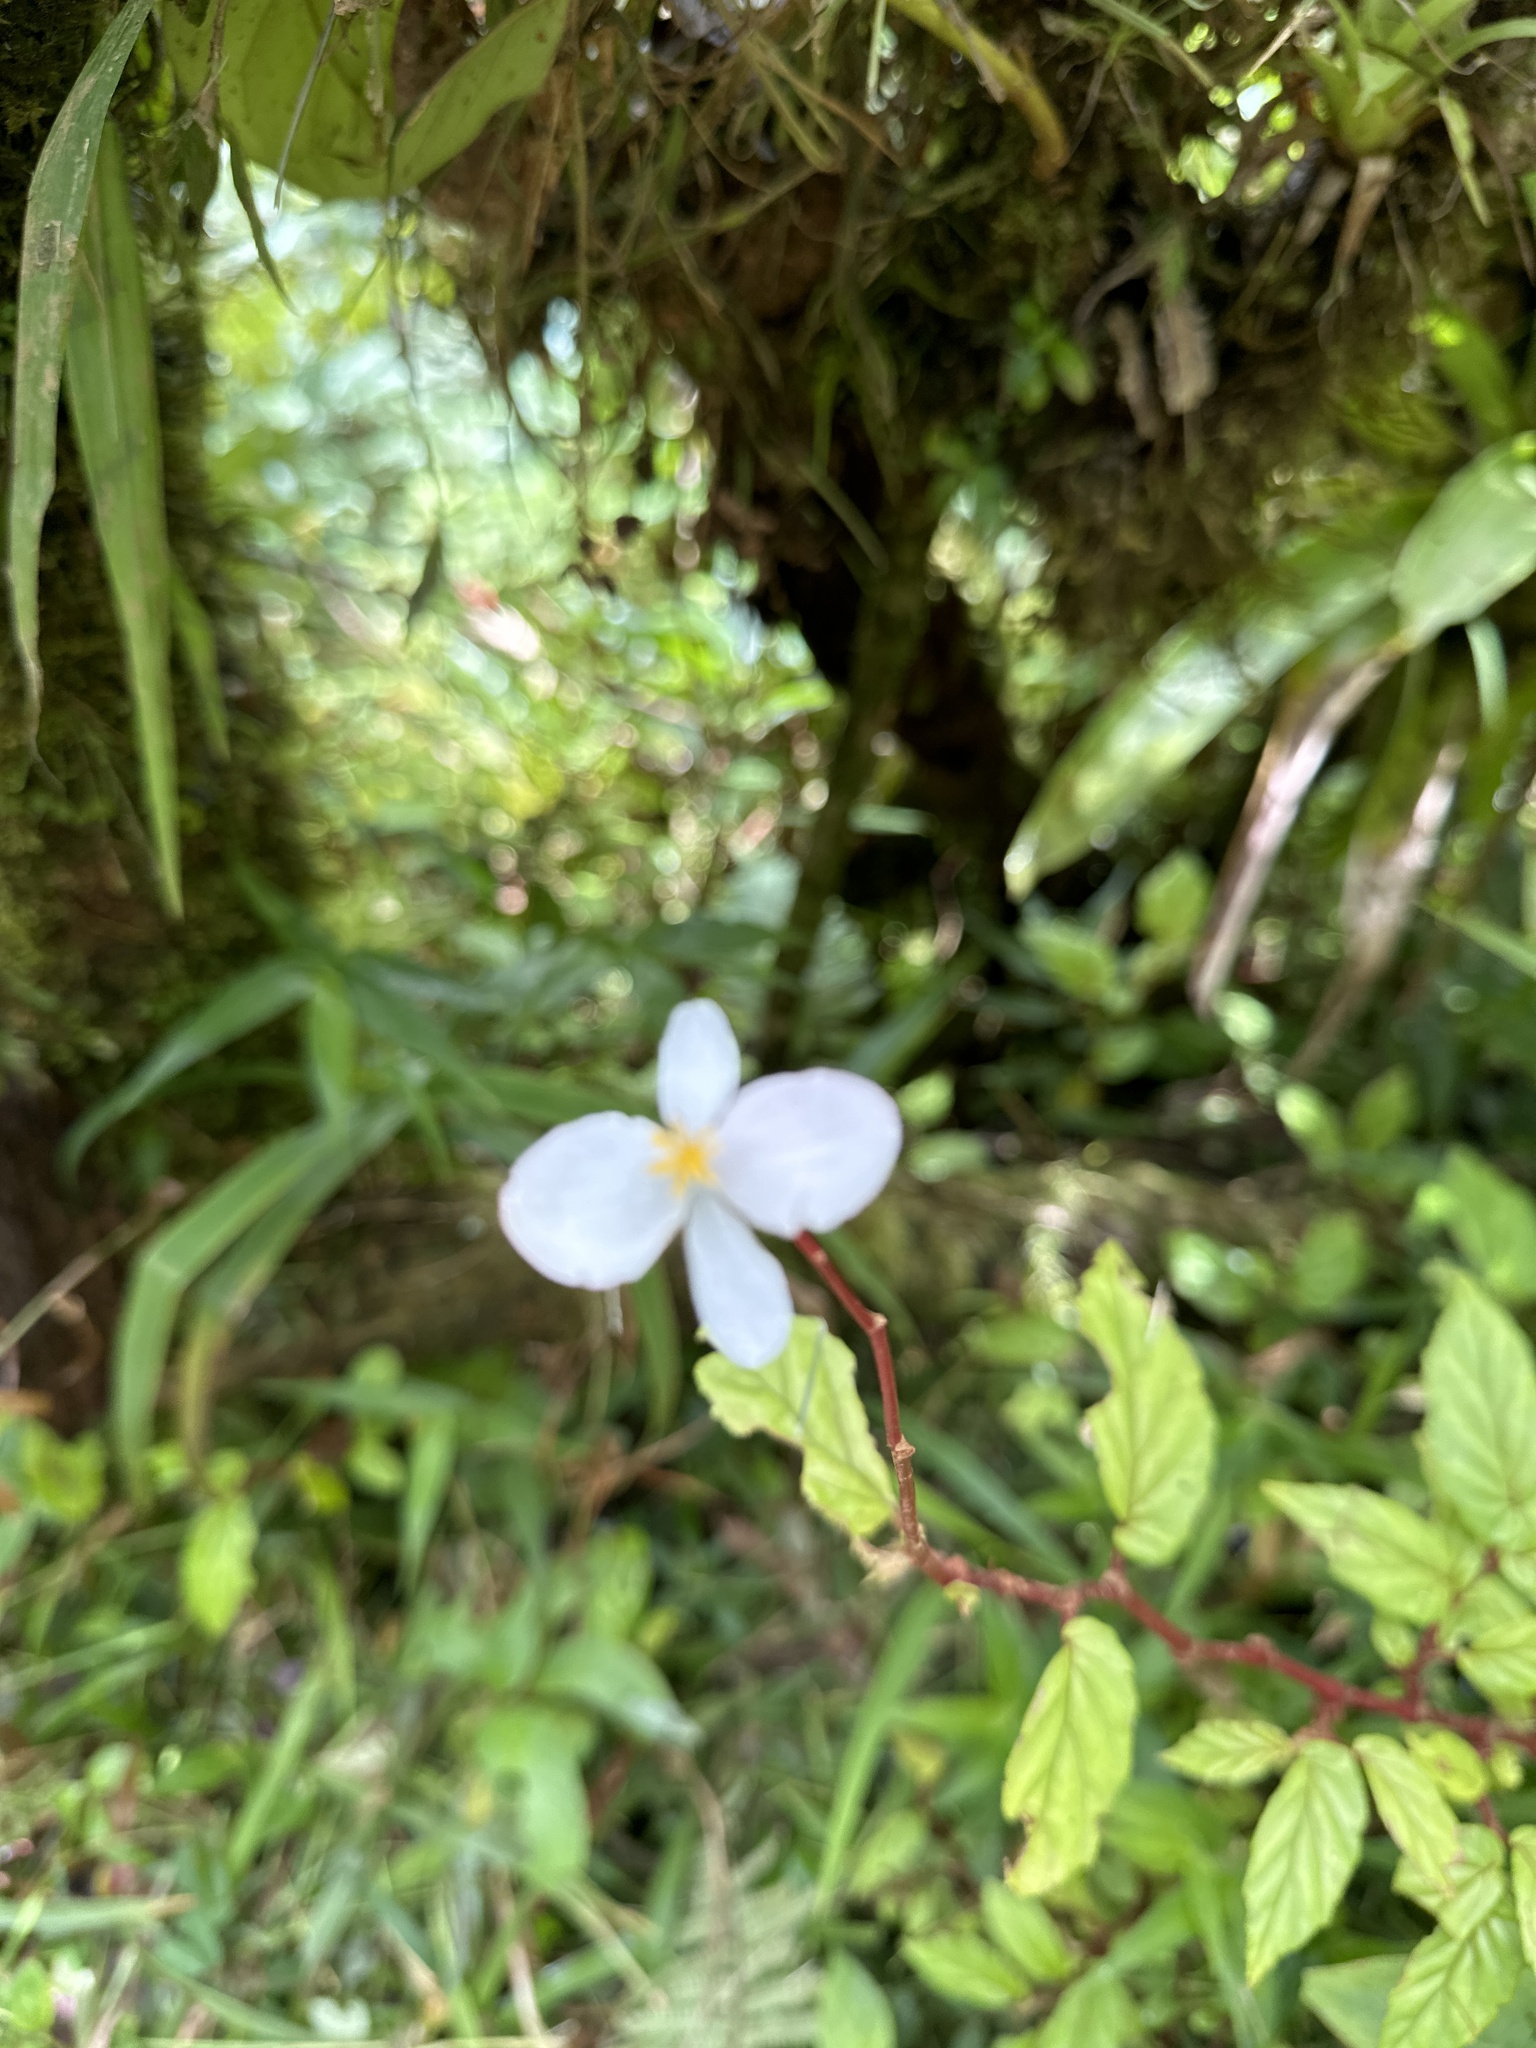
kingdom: Plantae
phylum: Tracheophyta
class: Magnoliopsida
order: Cucurbitales
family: Begoniaceae
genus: Begonia
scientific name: Begonia decandra
